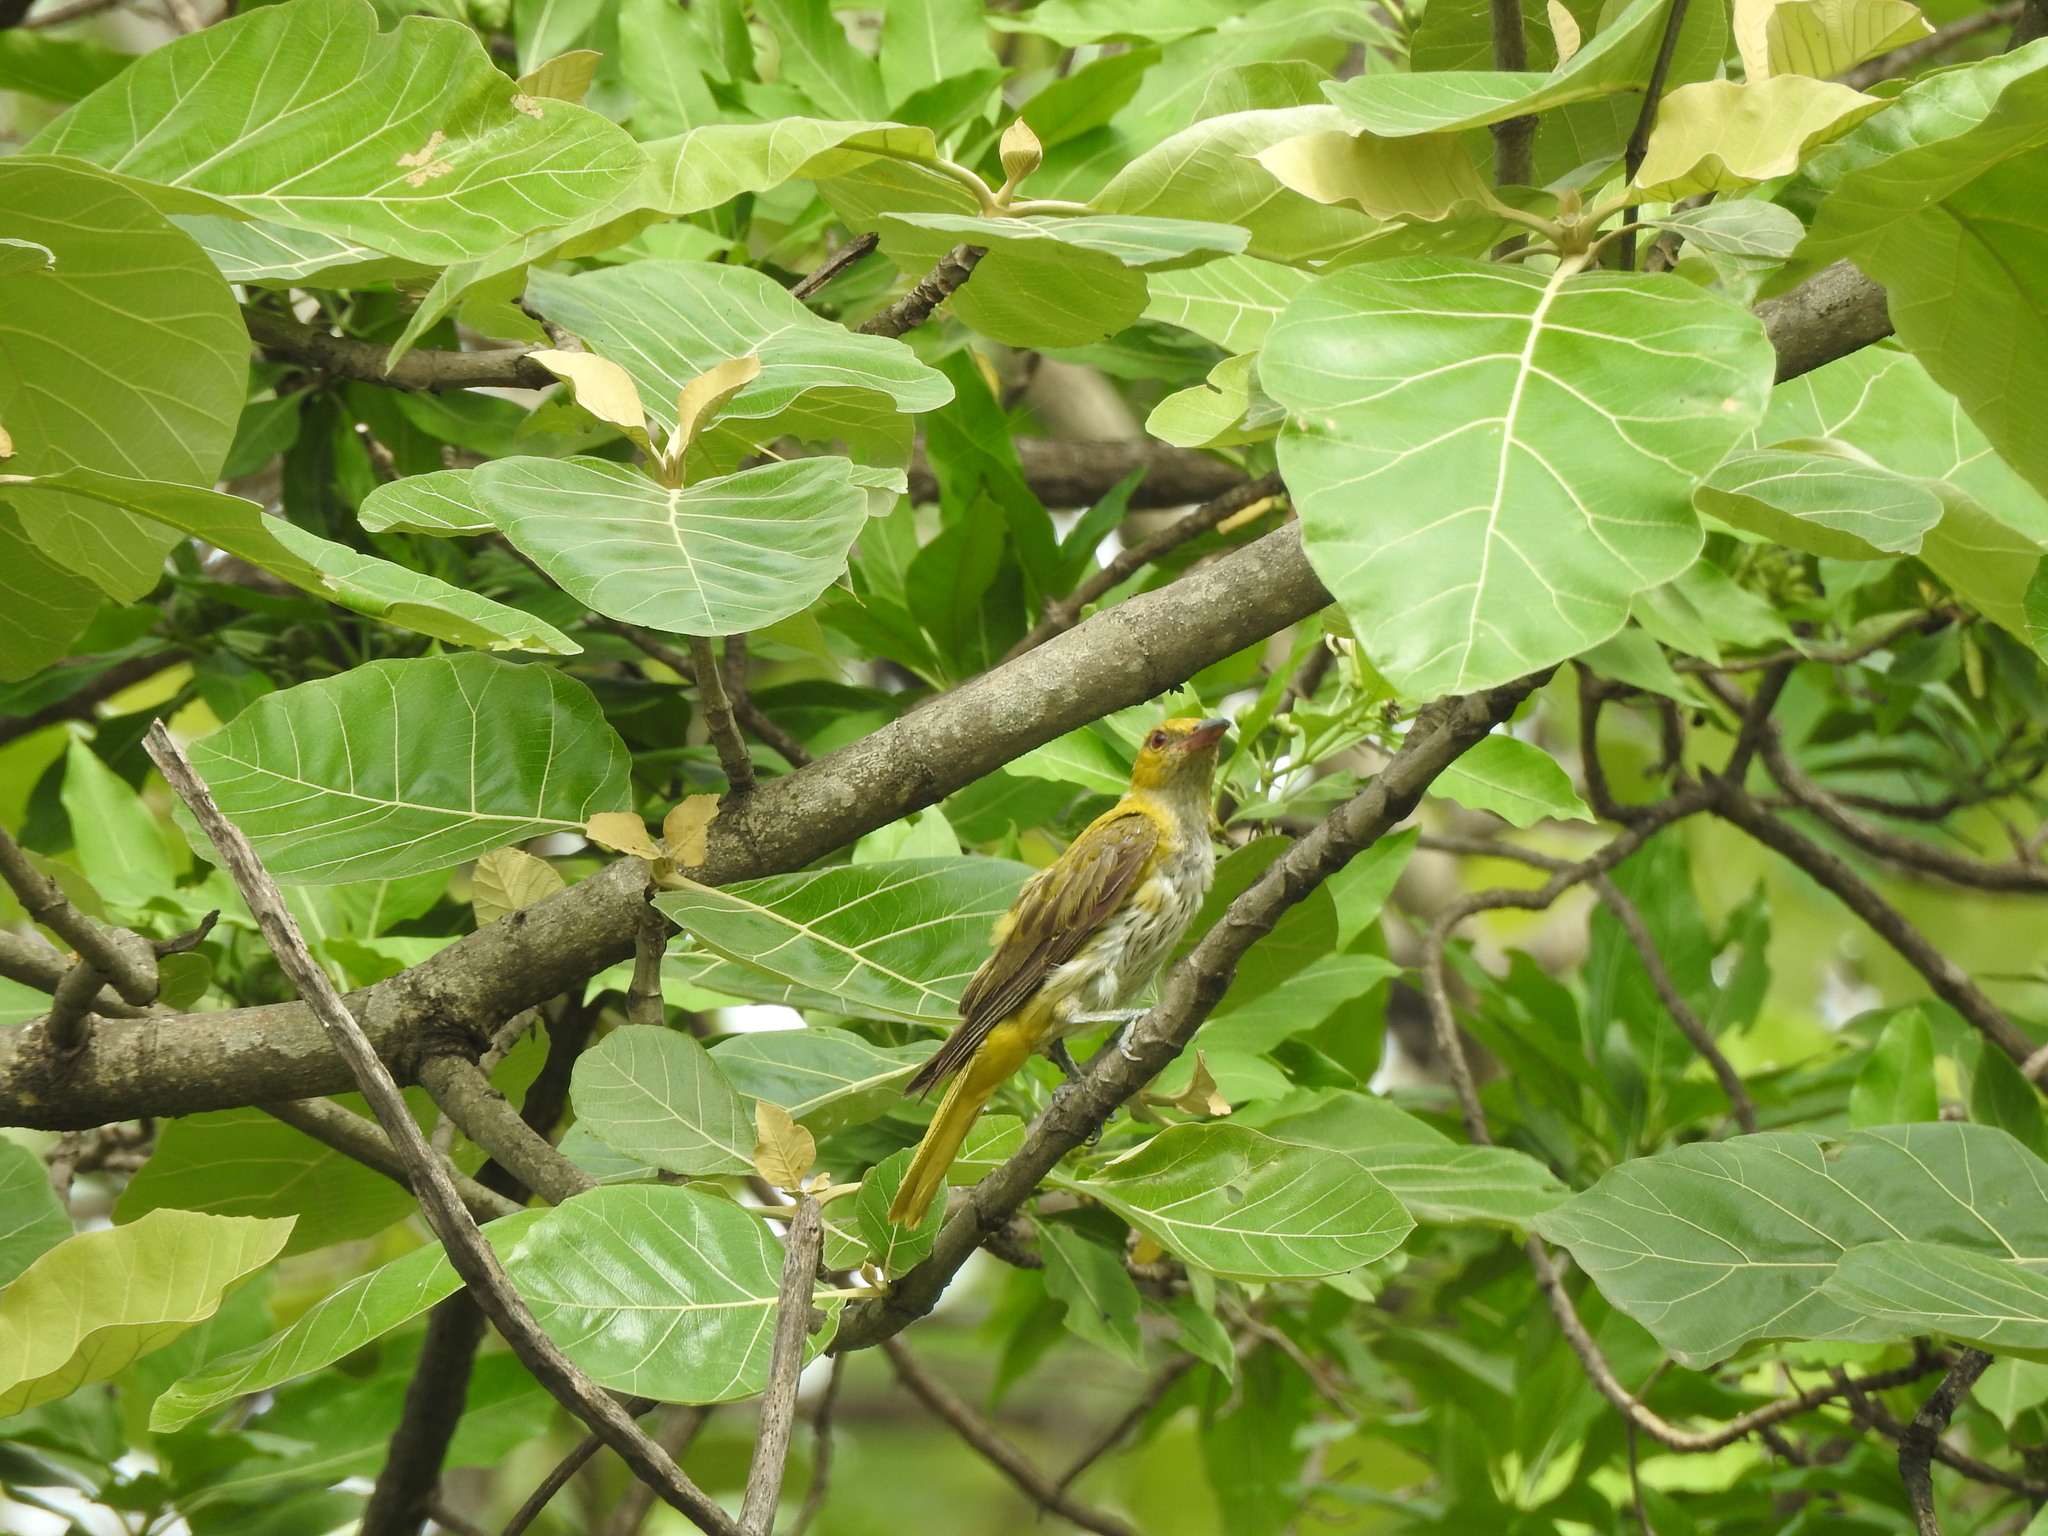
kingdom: Animalia
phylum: Chordata
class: Aves
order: Passeriformes
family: Oriolidae
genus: Oriolus
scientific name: Oriolus kundoo
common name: Indian golden oriole
